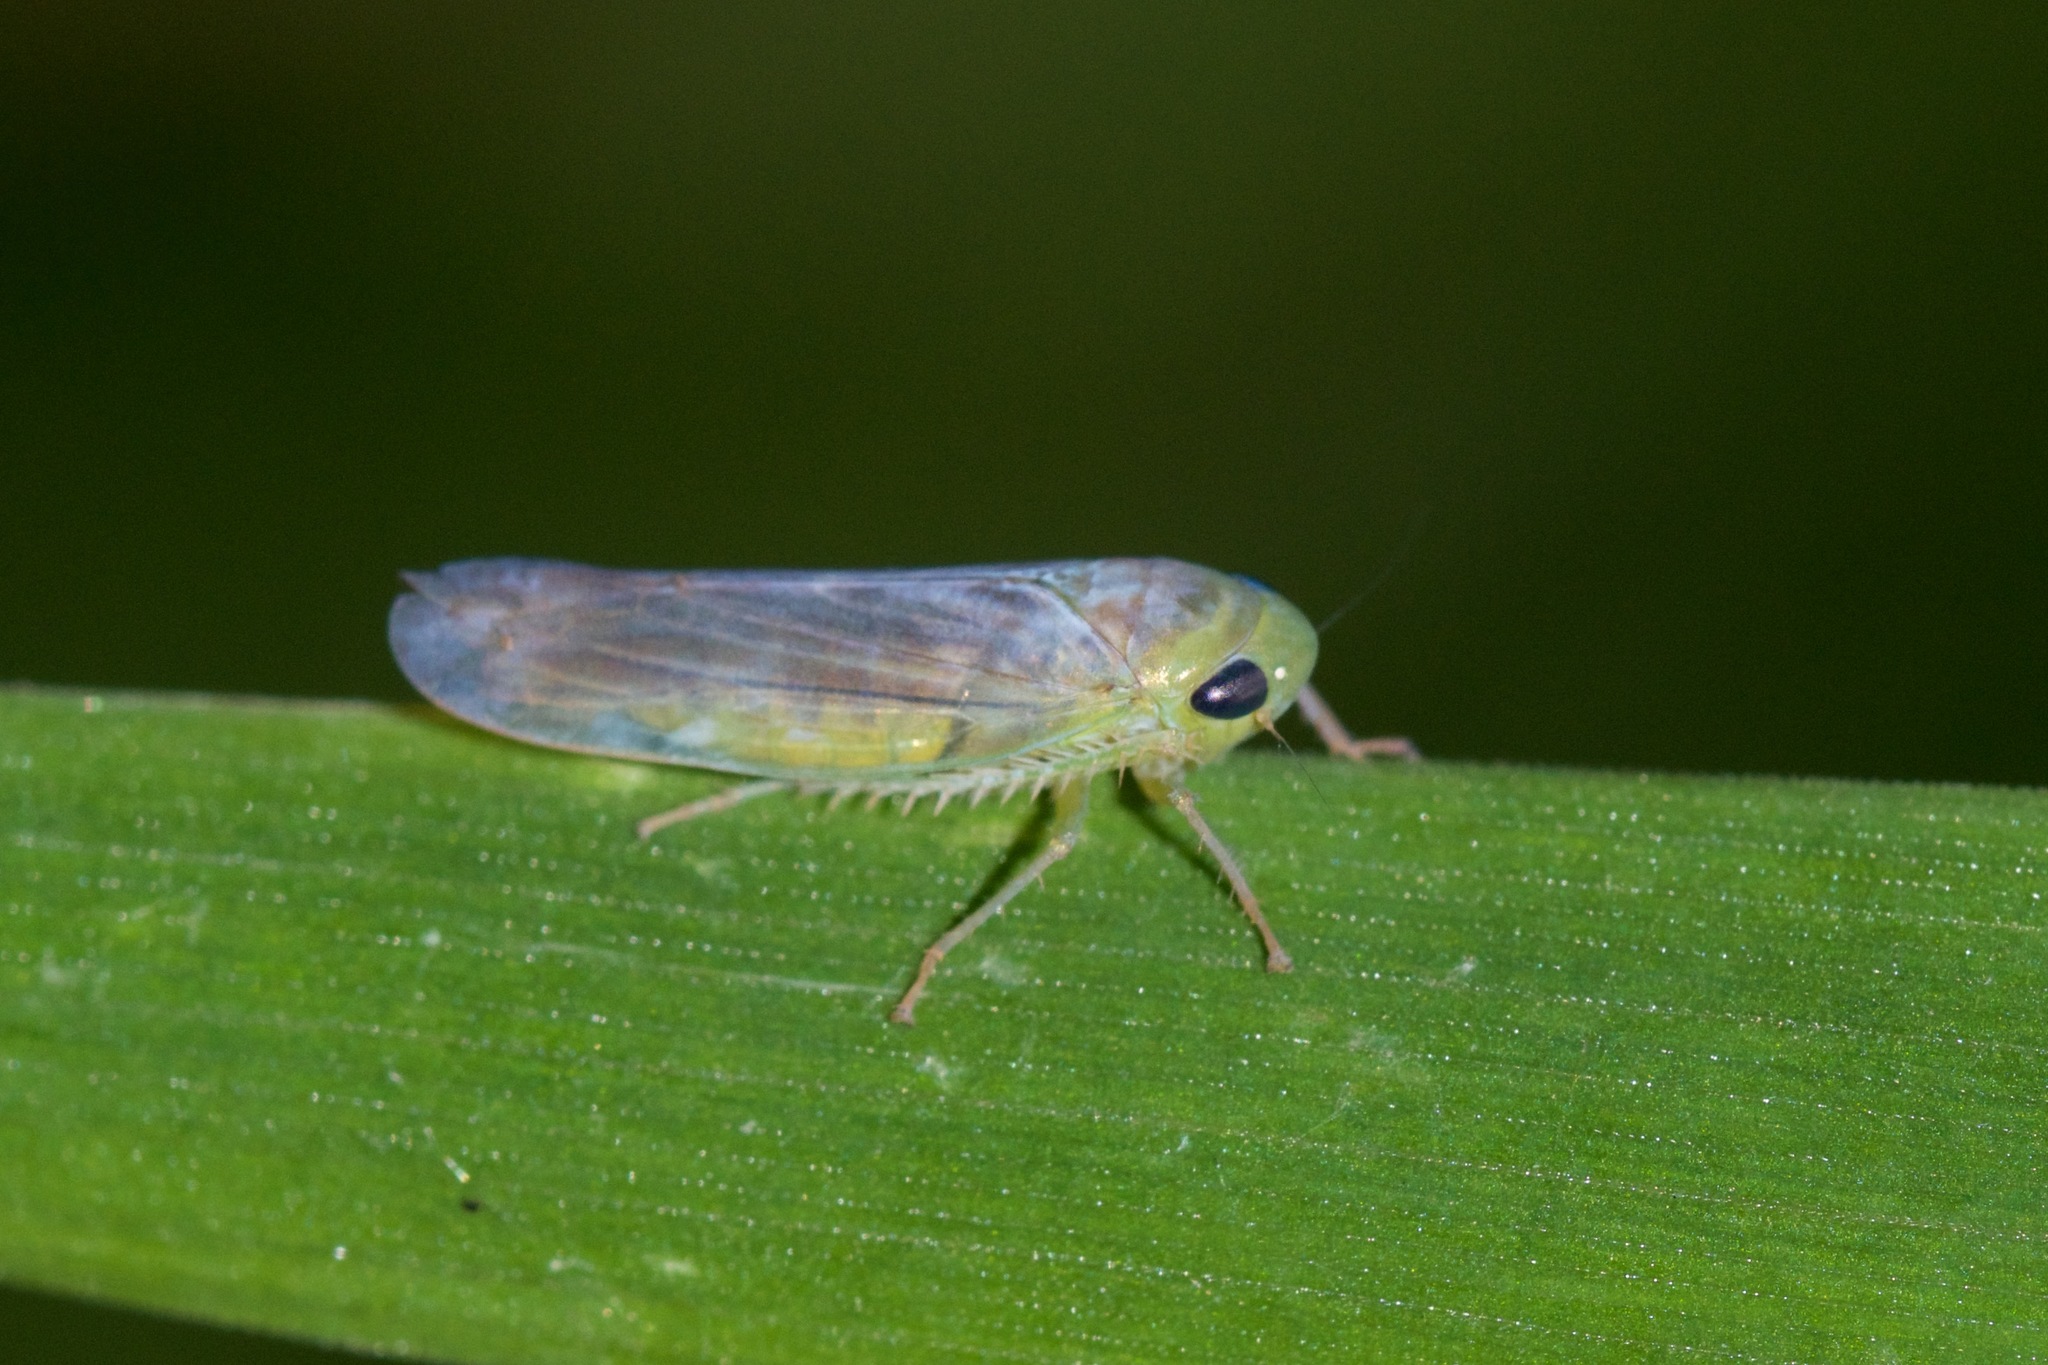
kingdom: Animalia
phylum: Arthropoda
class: Insecta
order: Hemiptera
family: Cicadellidae
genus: Chlorotettix
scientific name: Chlorotettix tergatus
